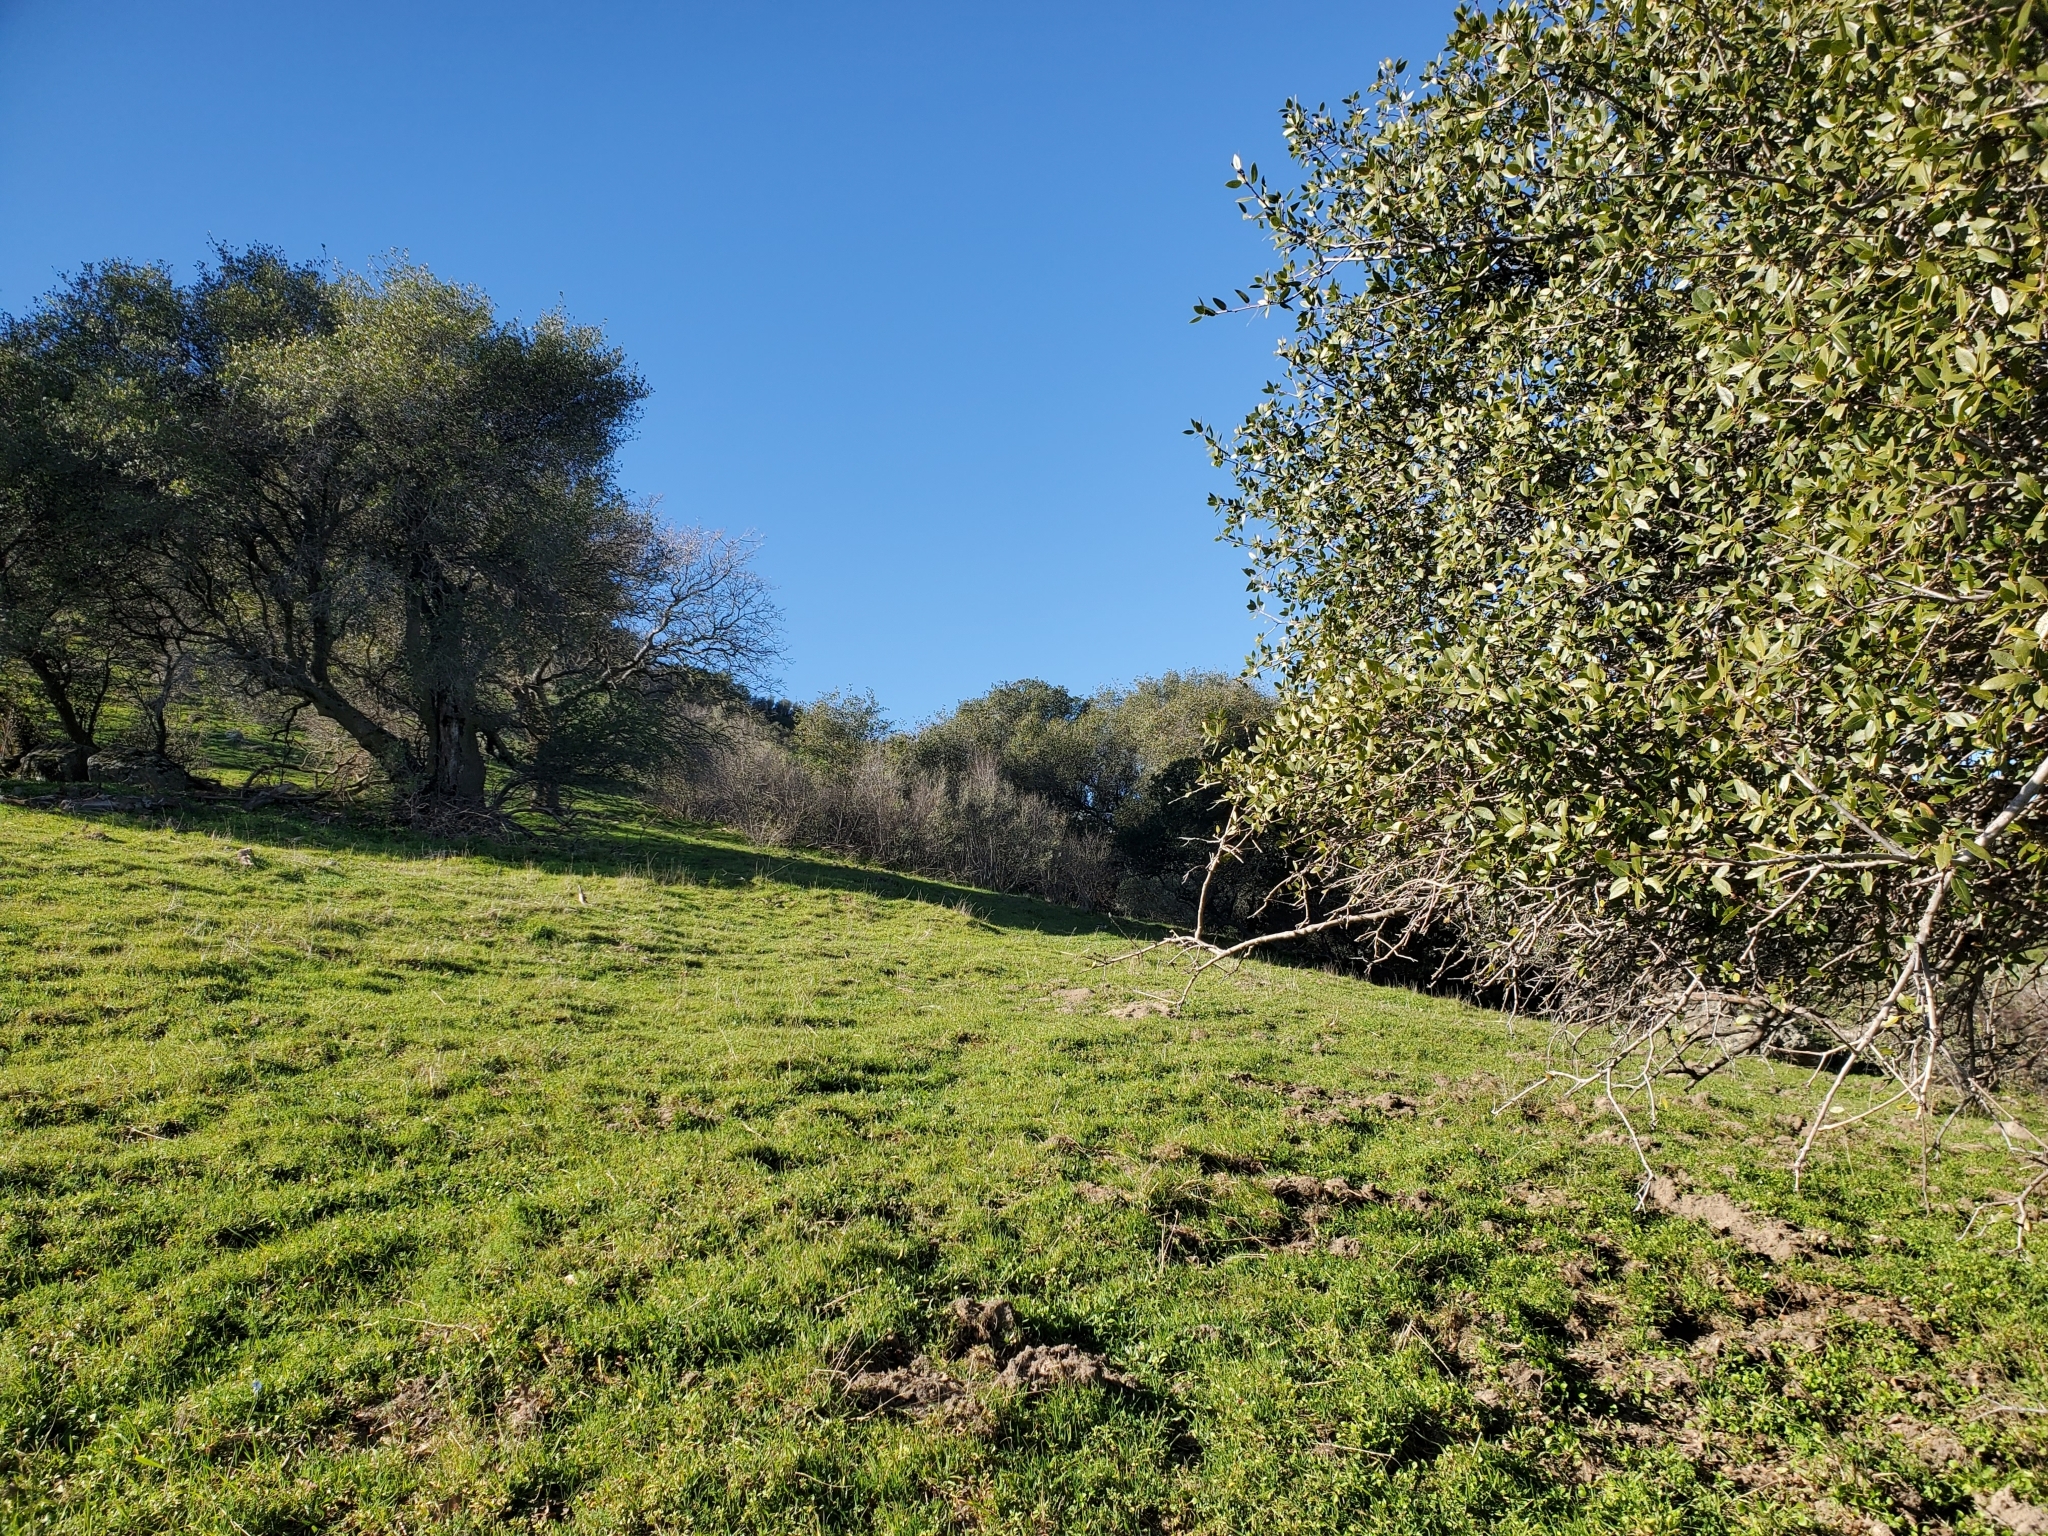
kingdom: Plantae
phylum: Tracheophyta
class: Magnoliopsida
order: Fagales
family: Fagaceae
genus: Quercus
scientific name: Quercus wislizeni
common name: Interior live oak
